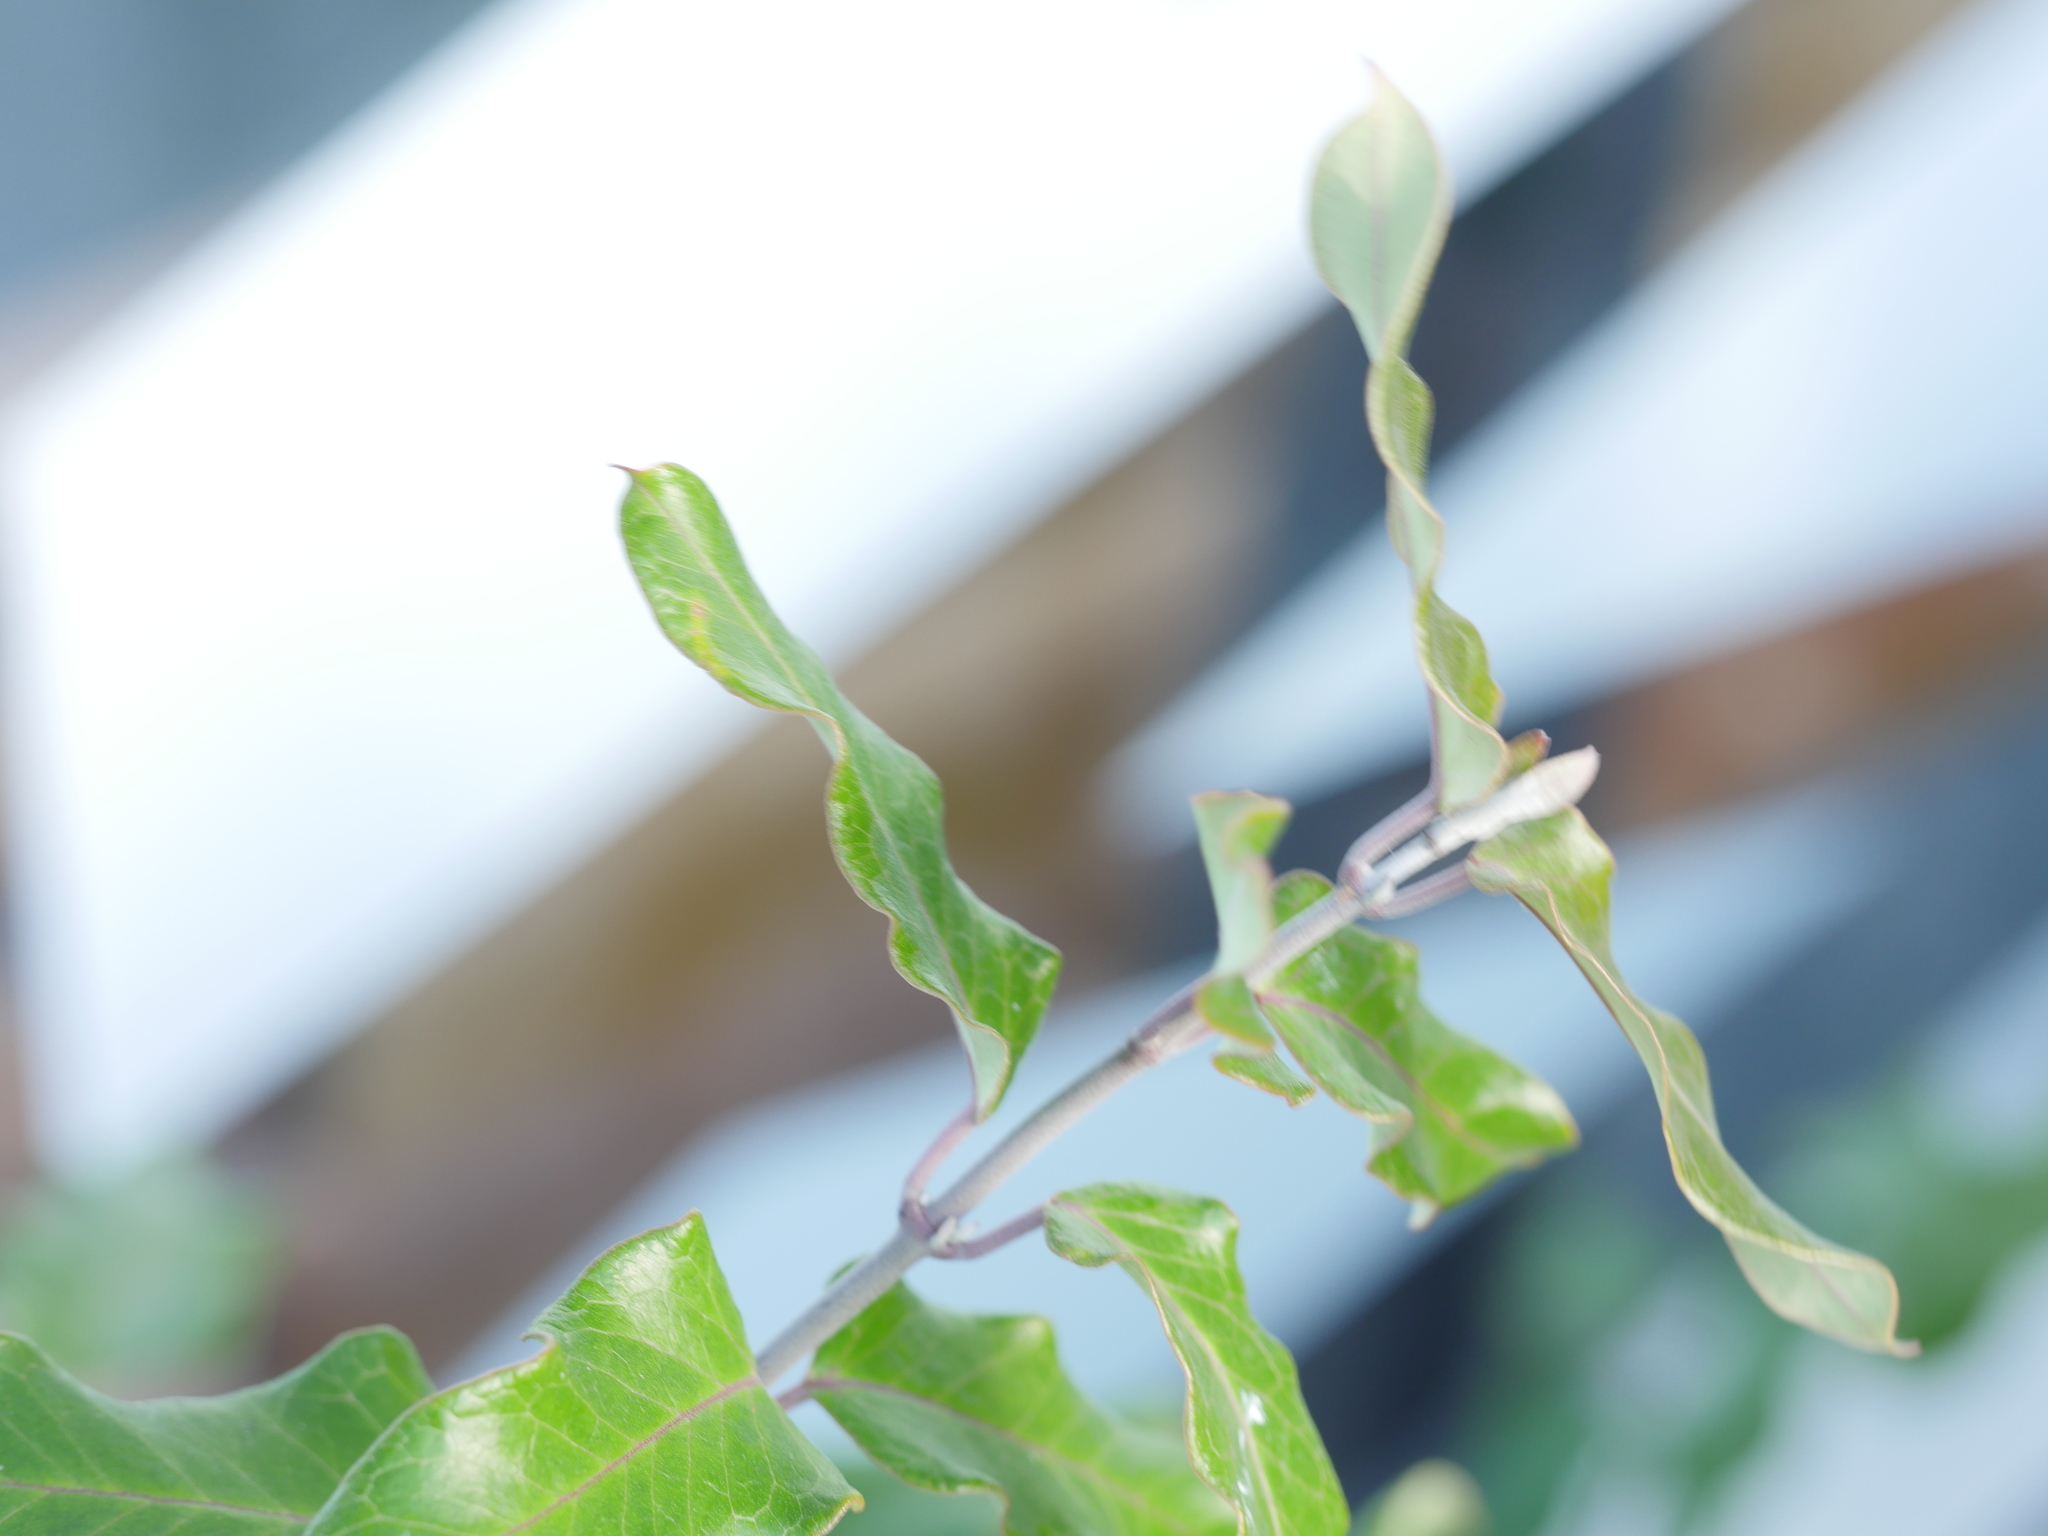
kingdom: Plantae
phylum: Tracheophyta
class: Magnoliopsida
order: Gentianales
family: Apocynaceae
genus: Araujia
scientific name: Araujia sericifera
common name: White bladderflower
